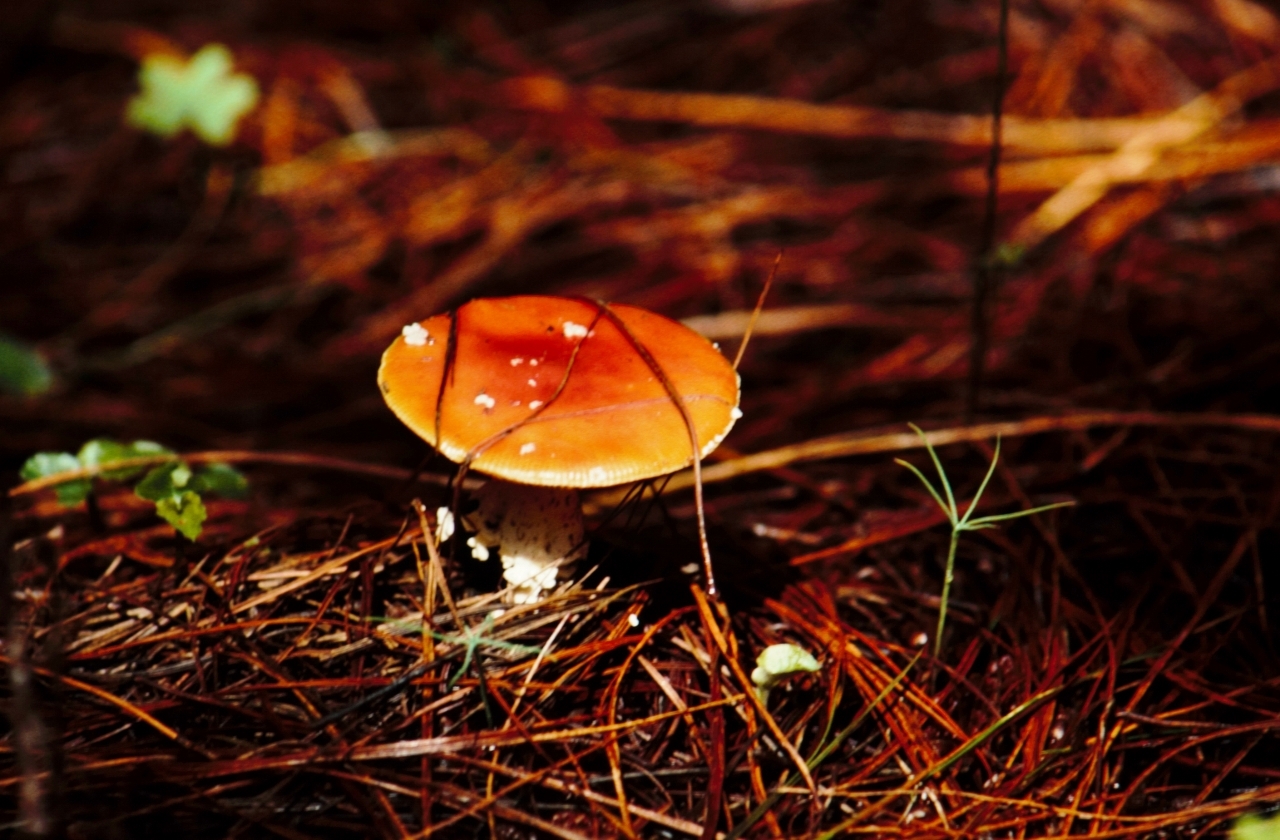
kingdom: Fungi
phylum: Basidiomycota
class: Agaricomycetes
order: Agaricales
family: Amanitaceae
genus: Amanita
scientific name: Amanita muscaria
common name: Fly agaric
